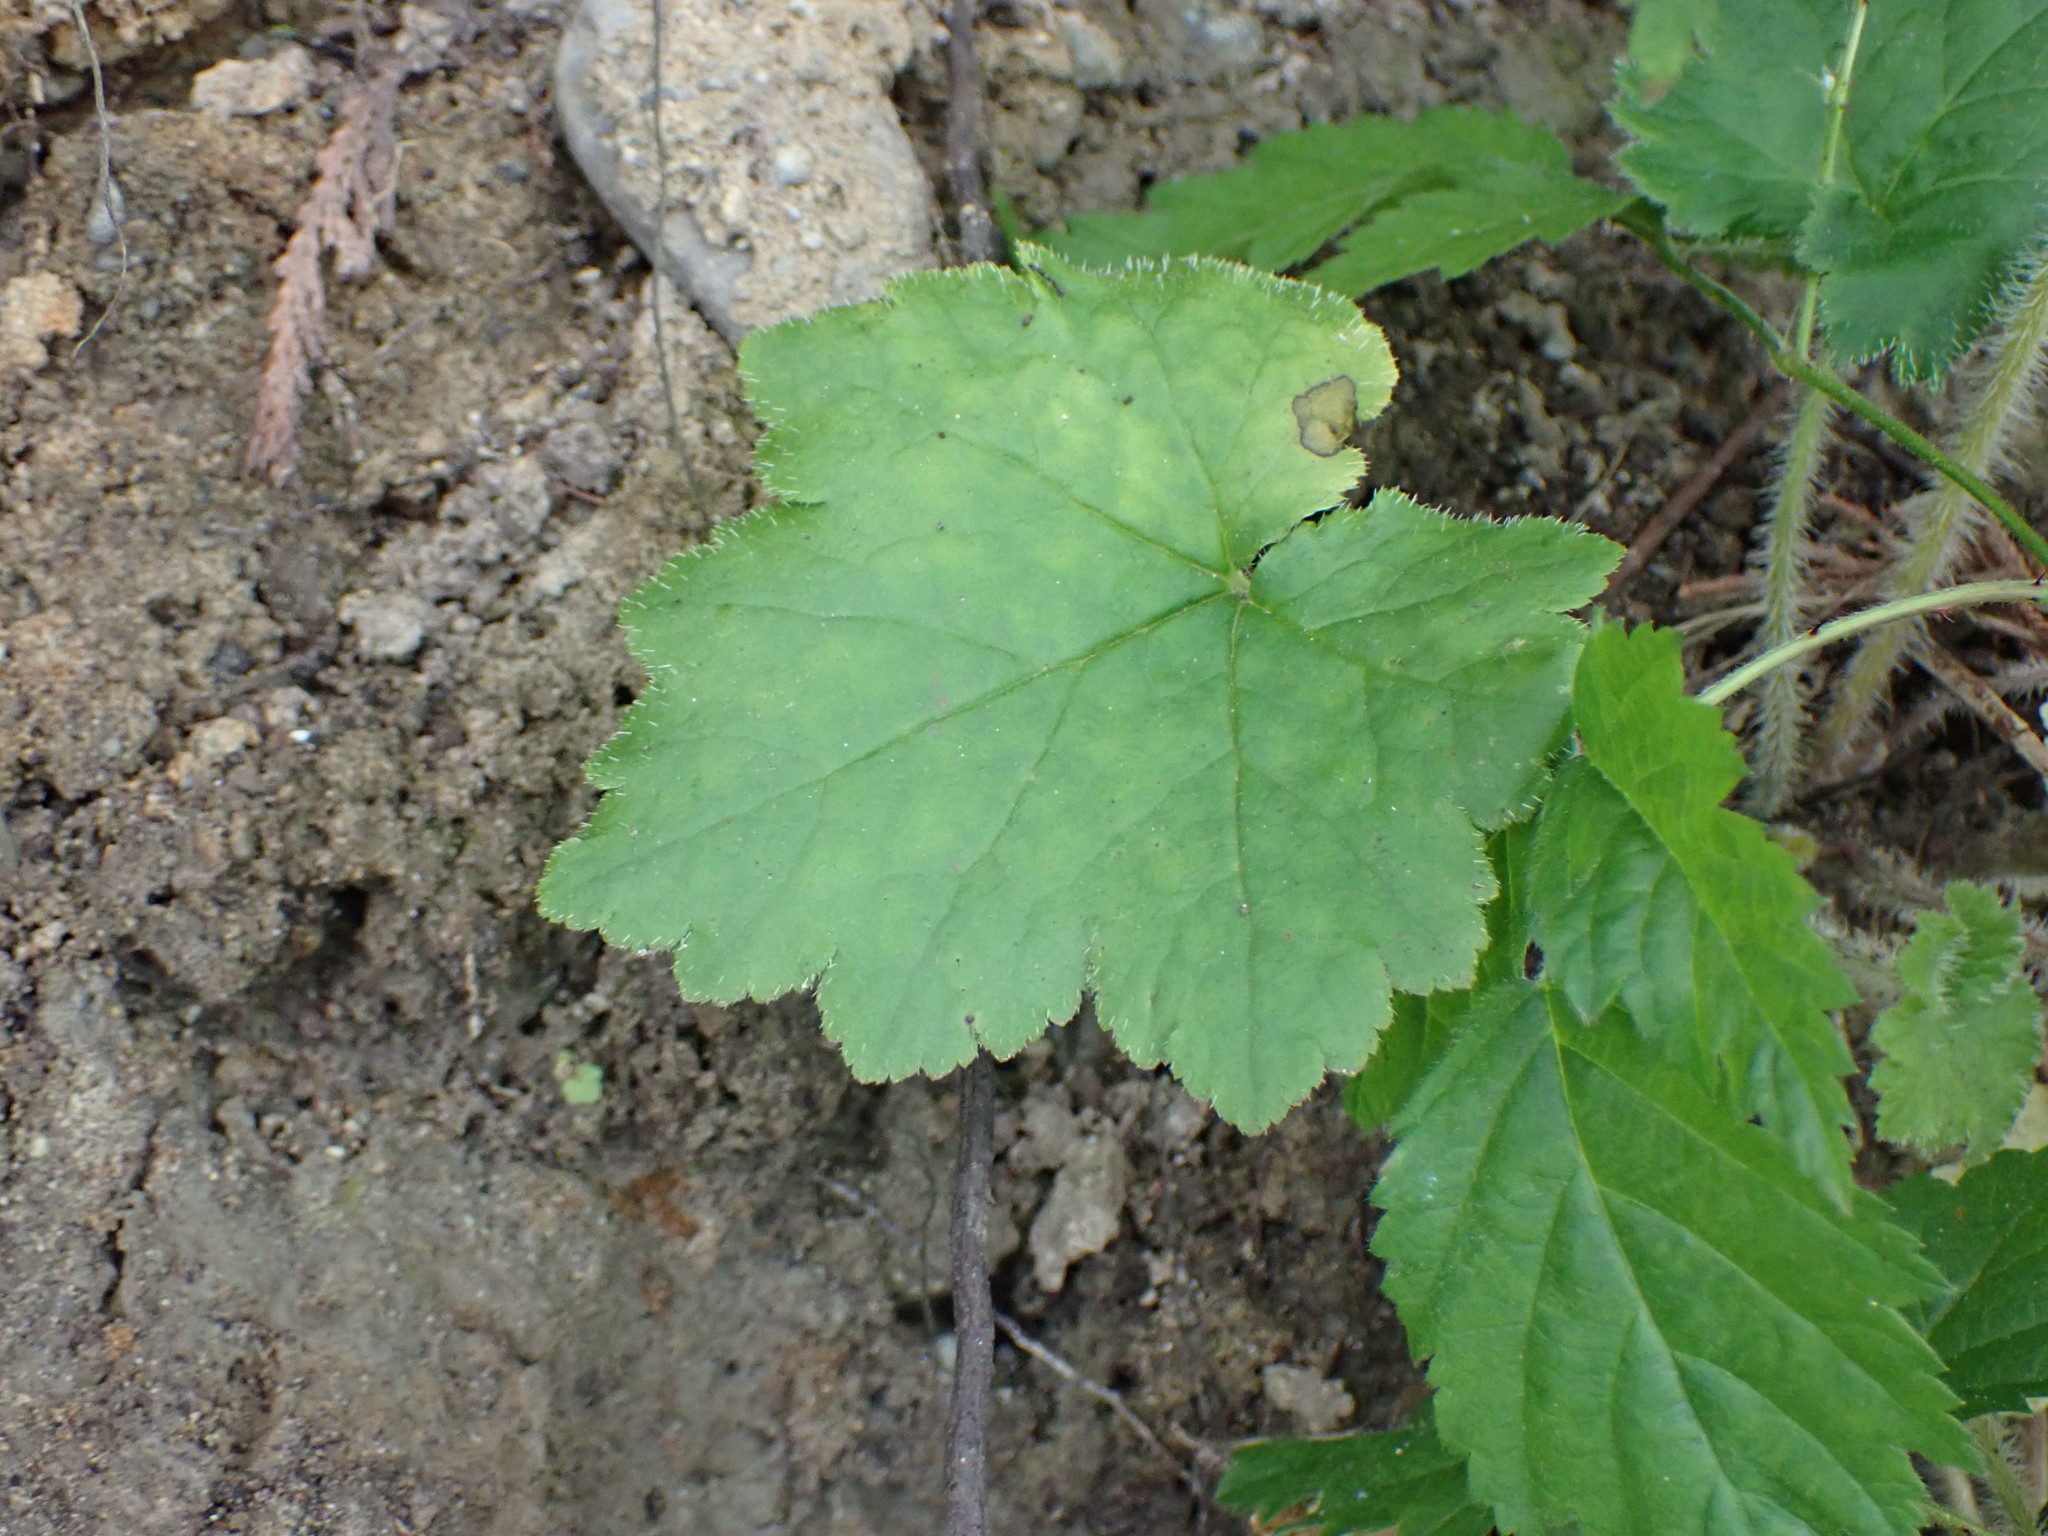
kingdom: Plantae
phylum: Tracheophyta
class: Magnoliopsida
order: Saxifragales
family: Saxifragaceae
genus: Tellima
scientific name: Tellima grandiflora
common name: Fringecups
